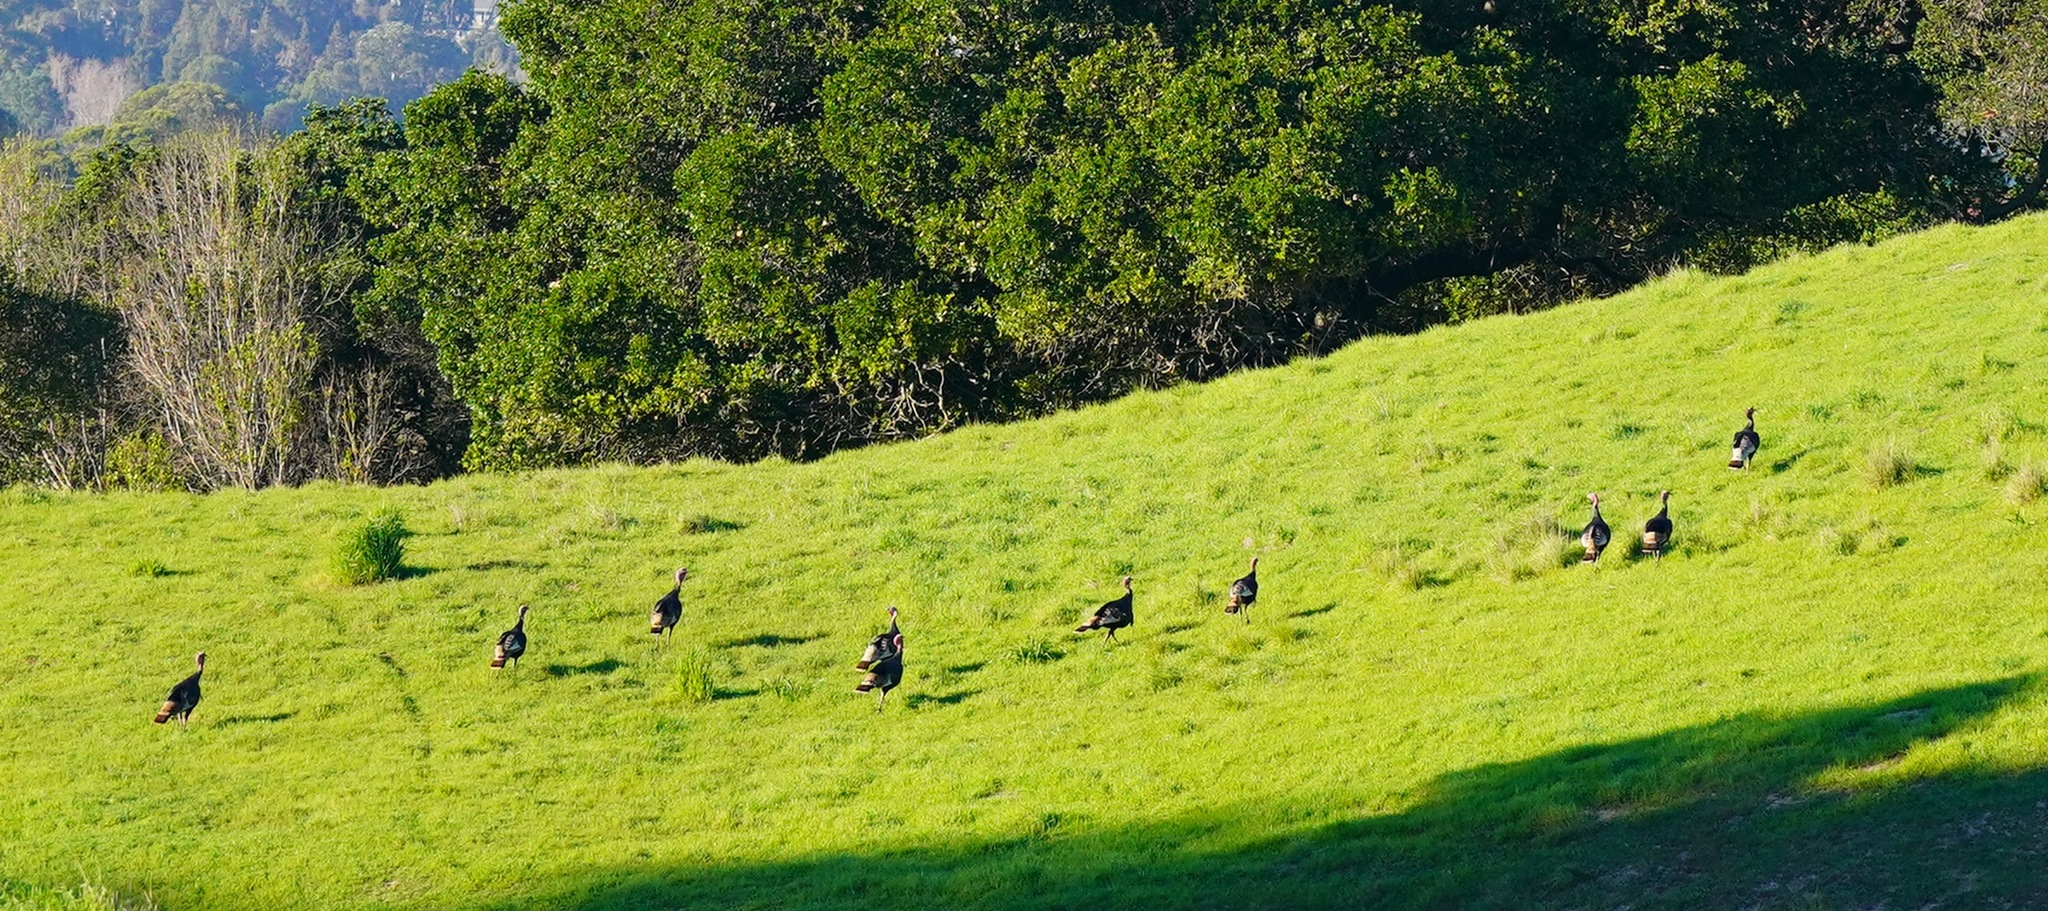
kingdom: Animalia
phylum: Chordata
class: Aves
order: Galliformes
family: Phasianidae
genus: Meleagris
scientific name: Meleagris gallopavo
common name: Wild turkey
